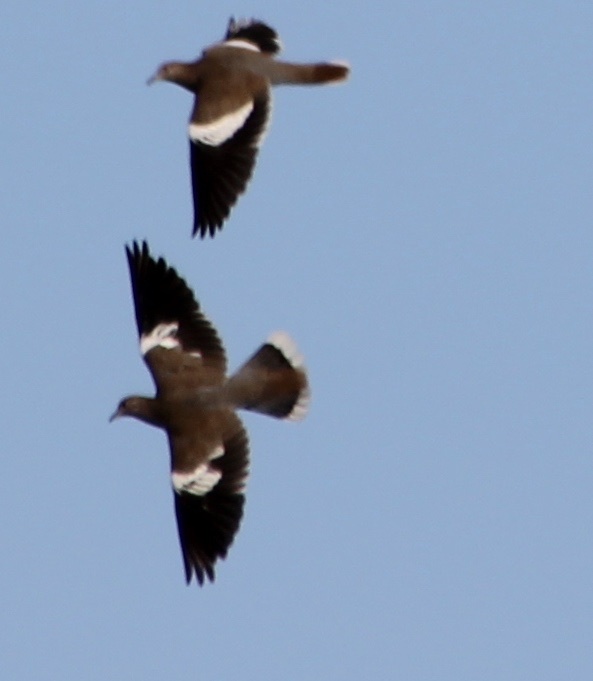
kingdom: Animalia
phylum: Chordata
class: Aves
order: Columbiformes
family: Columbidae
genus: Zenaida
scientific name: Zenaida asiatica
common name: White-winged dove
